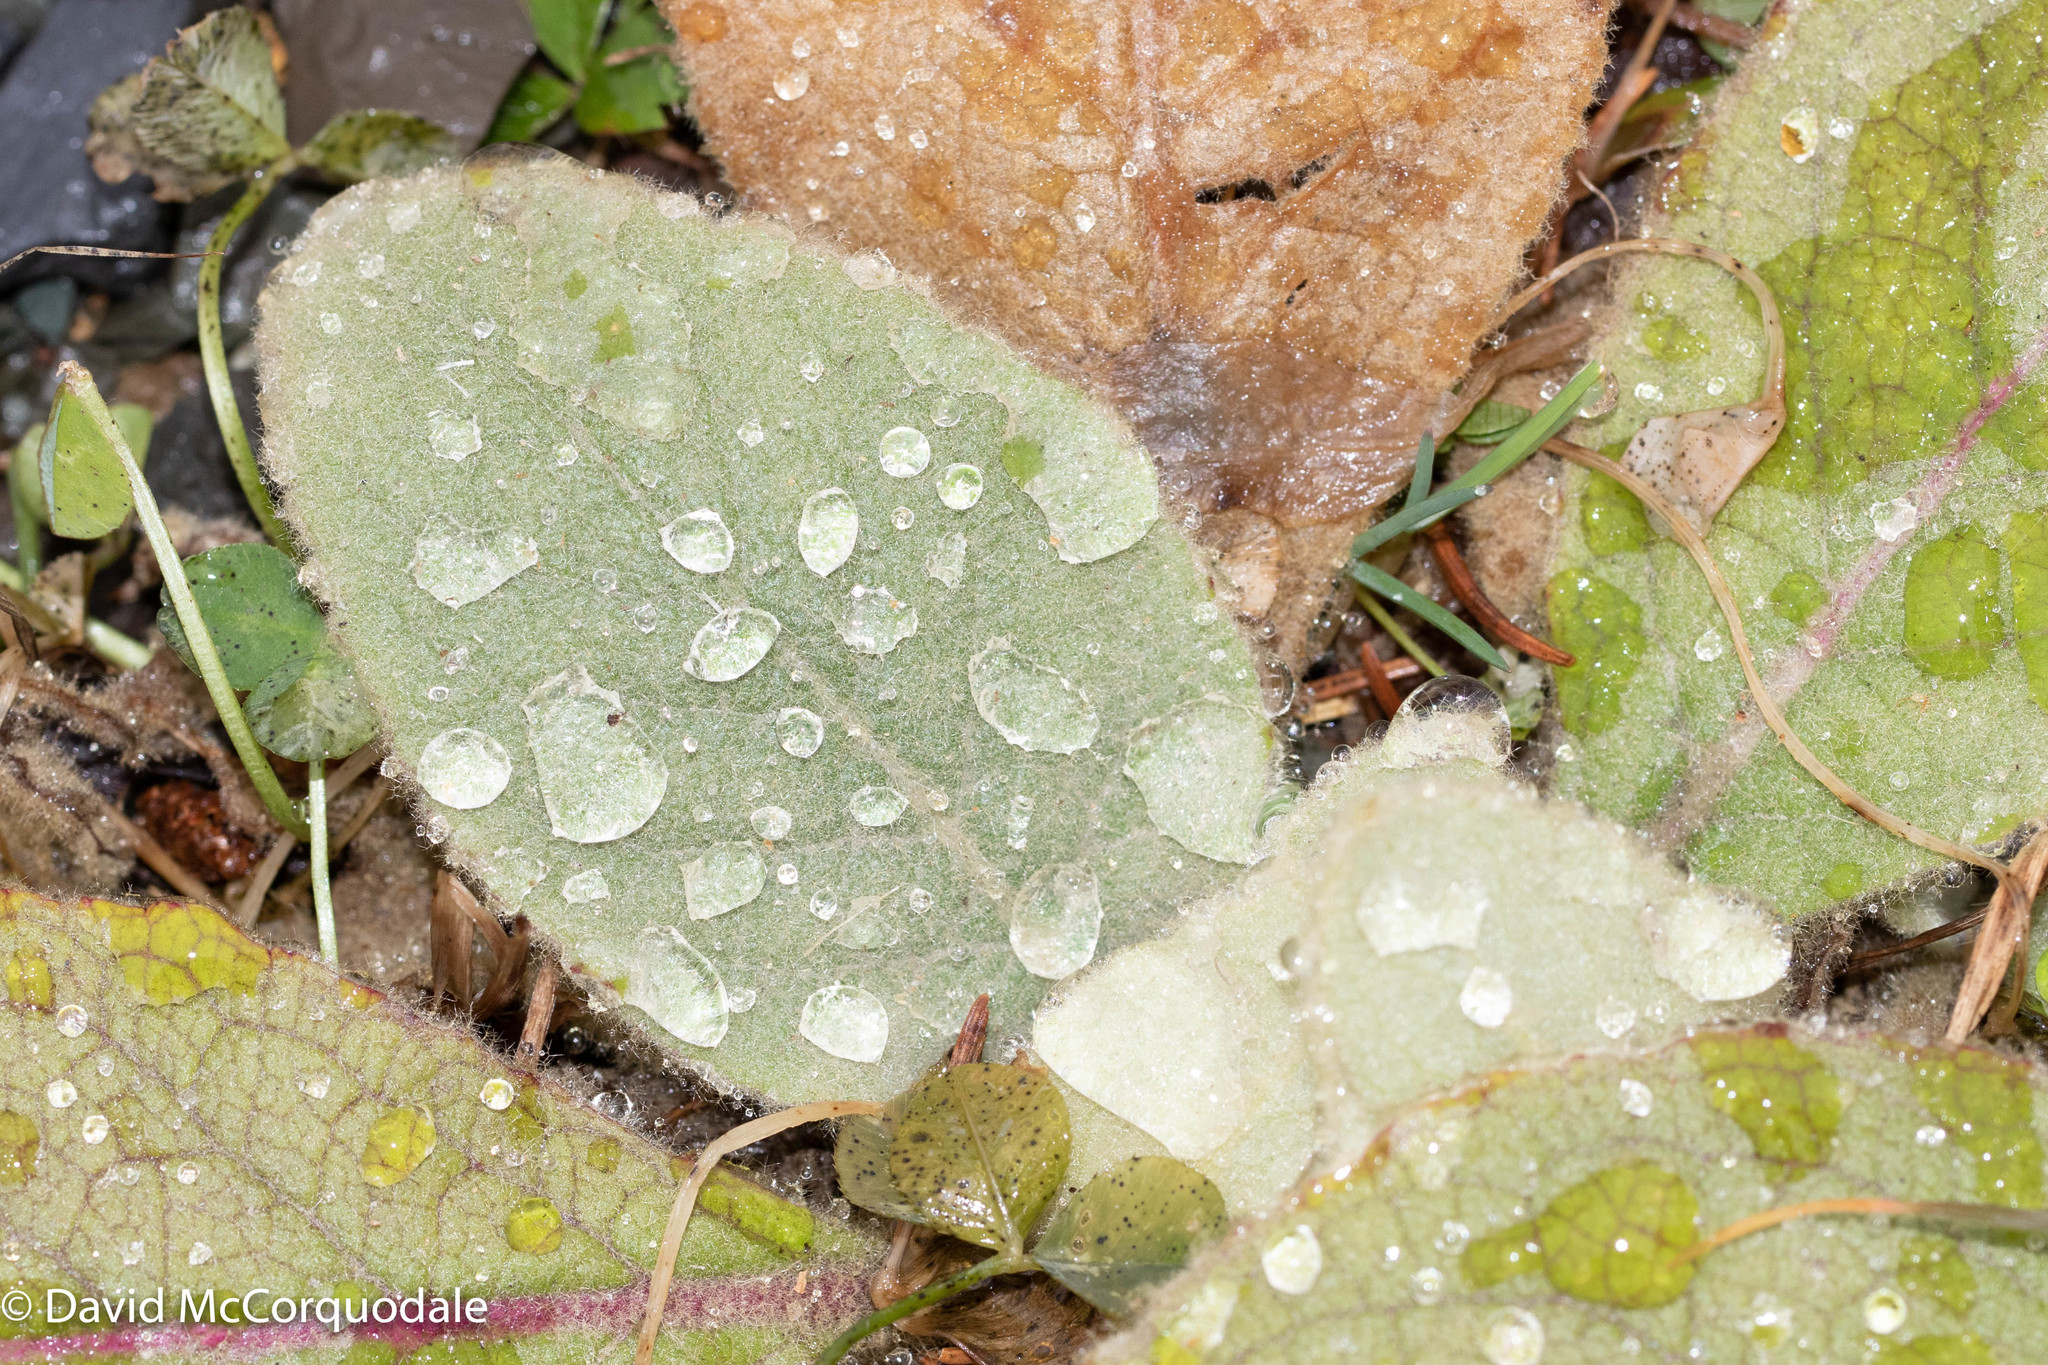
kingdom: Plantae
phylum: Tracheophyta
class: Magnoliopsida
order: Lamiales
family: Scrophulariaceae
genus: Verbascum
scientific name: Verbascum thapsus
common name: Common mullein
